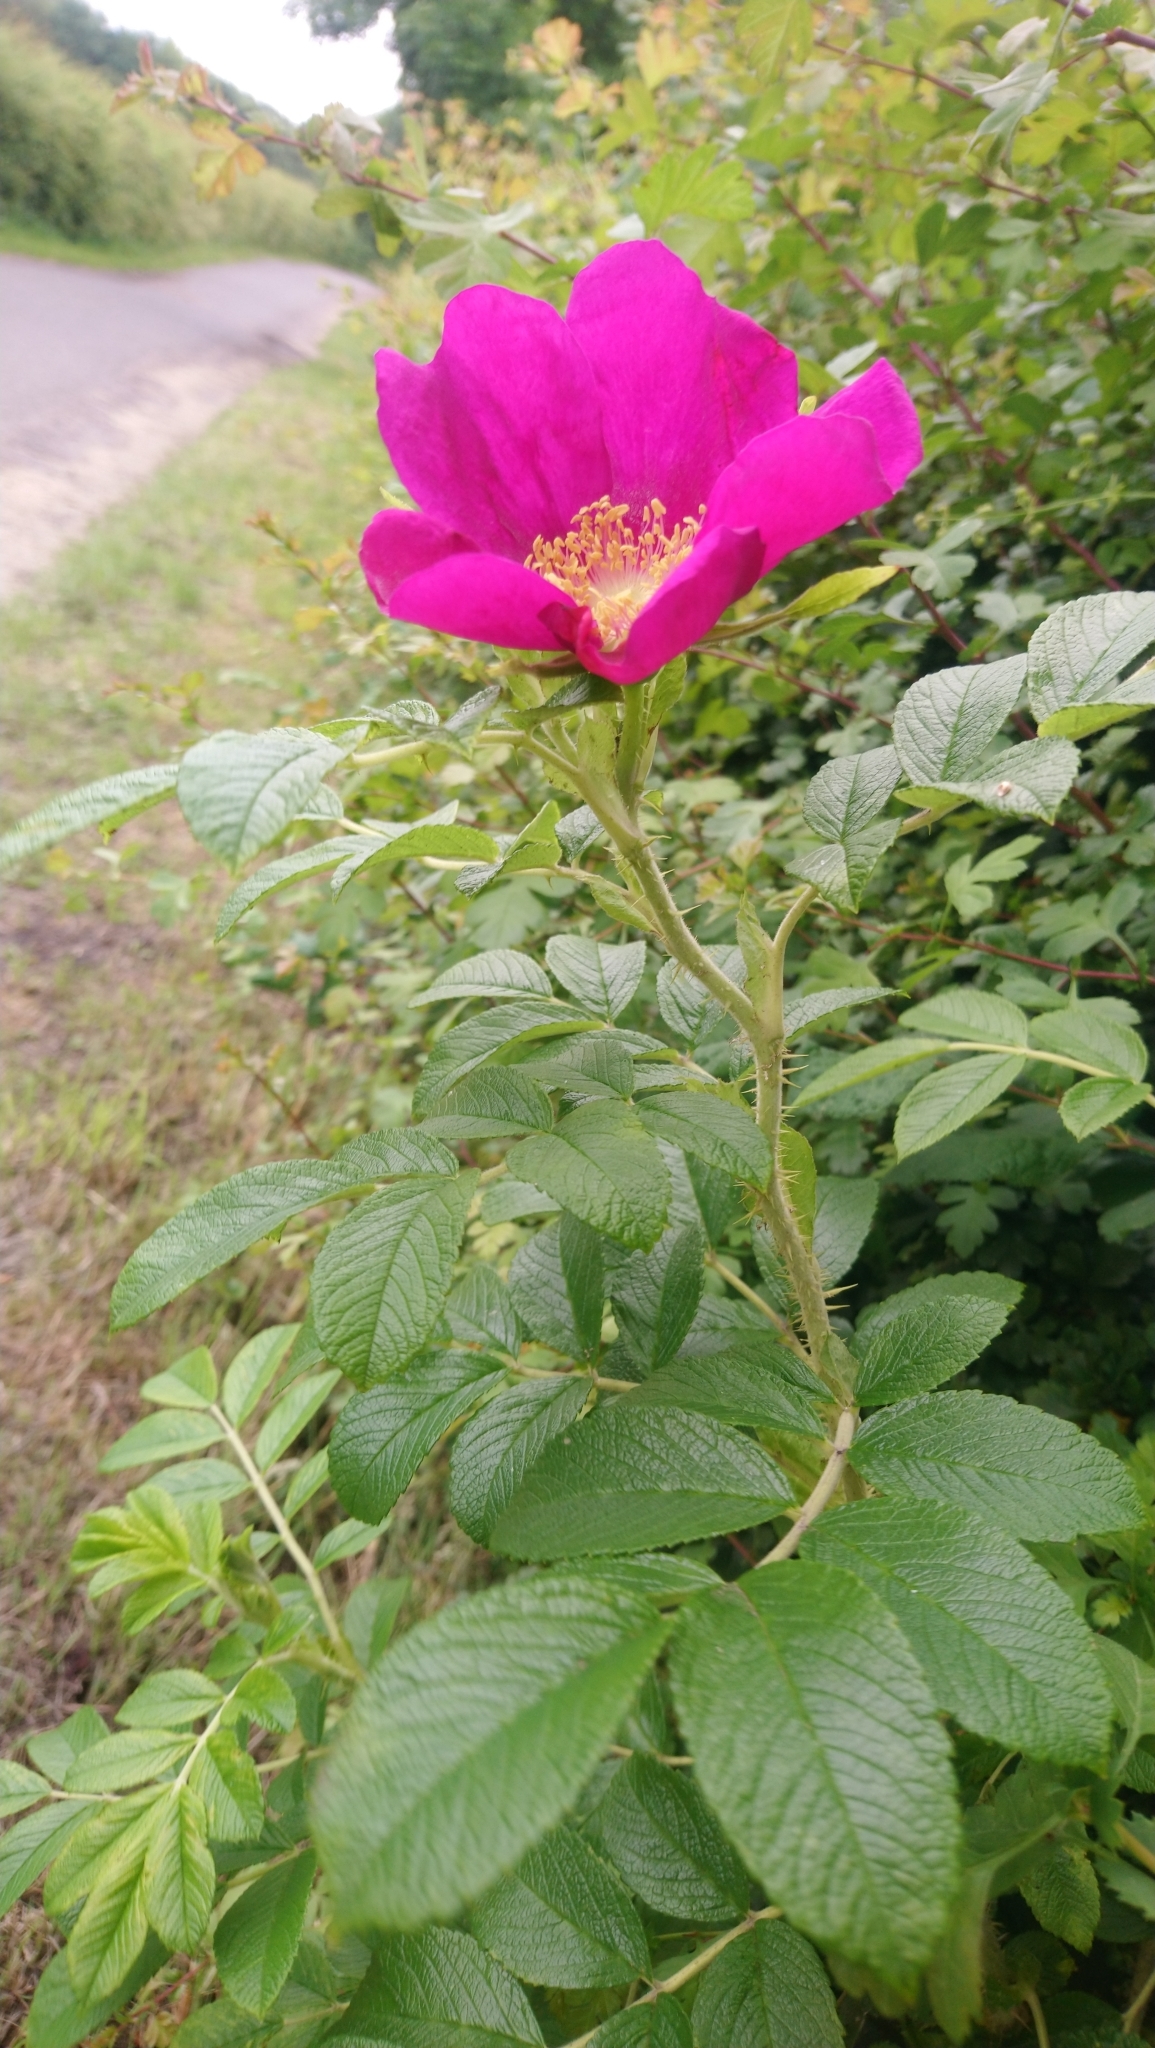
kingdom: Plantae
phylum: Tracheophyta
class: Magnoliopsida
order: Rosales
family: Rosaceae
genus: Rosa
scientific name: Rosa rugosa
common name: Japanese rose
